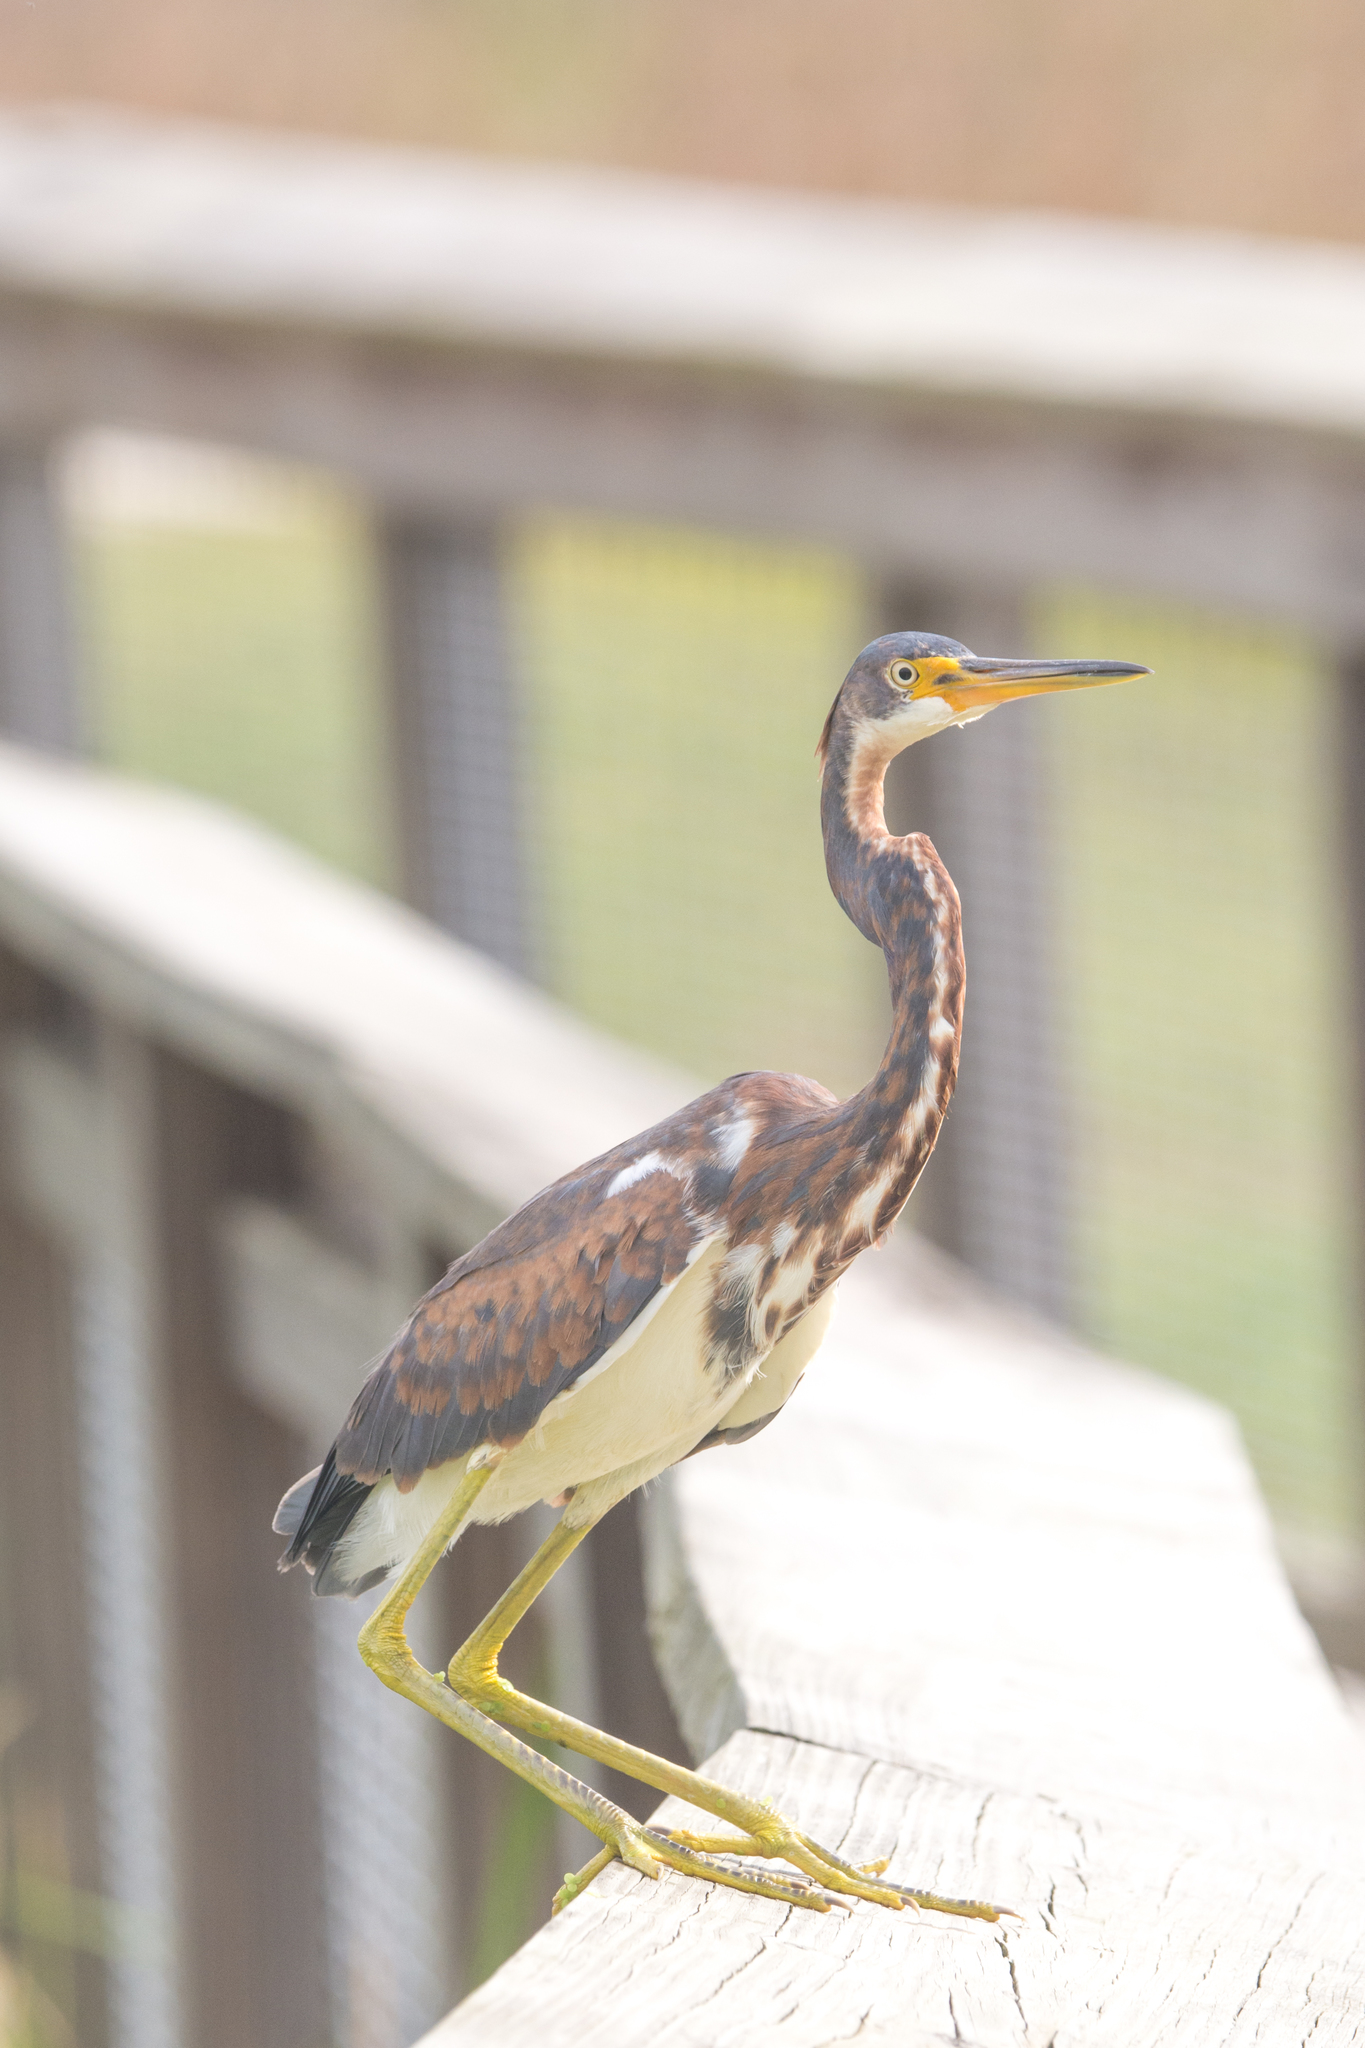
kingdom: Animalia
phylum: Chordata
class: Aves
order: Pelecaniformes
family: Ardeidae
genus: Egretta
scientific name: Egretta tricolor
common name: Tricolored heron
